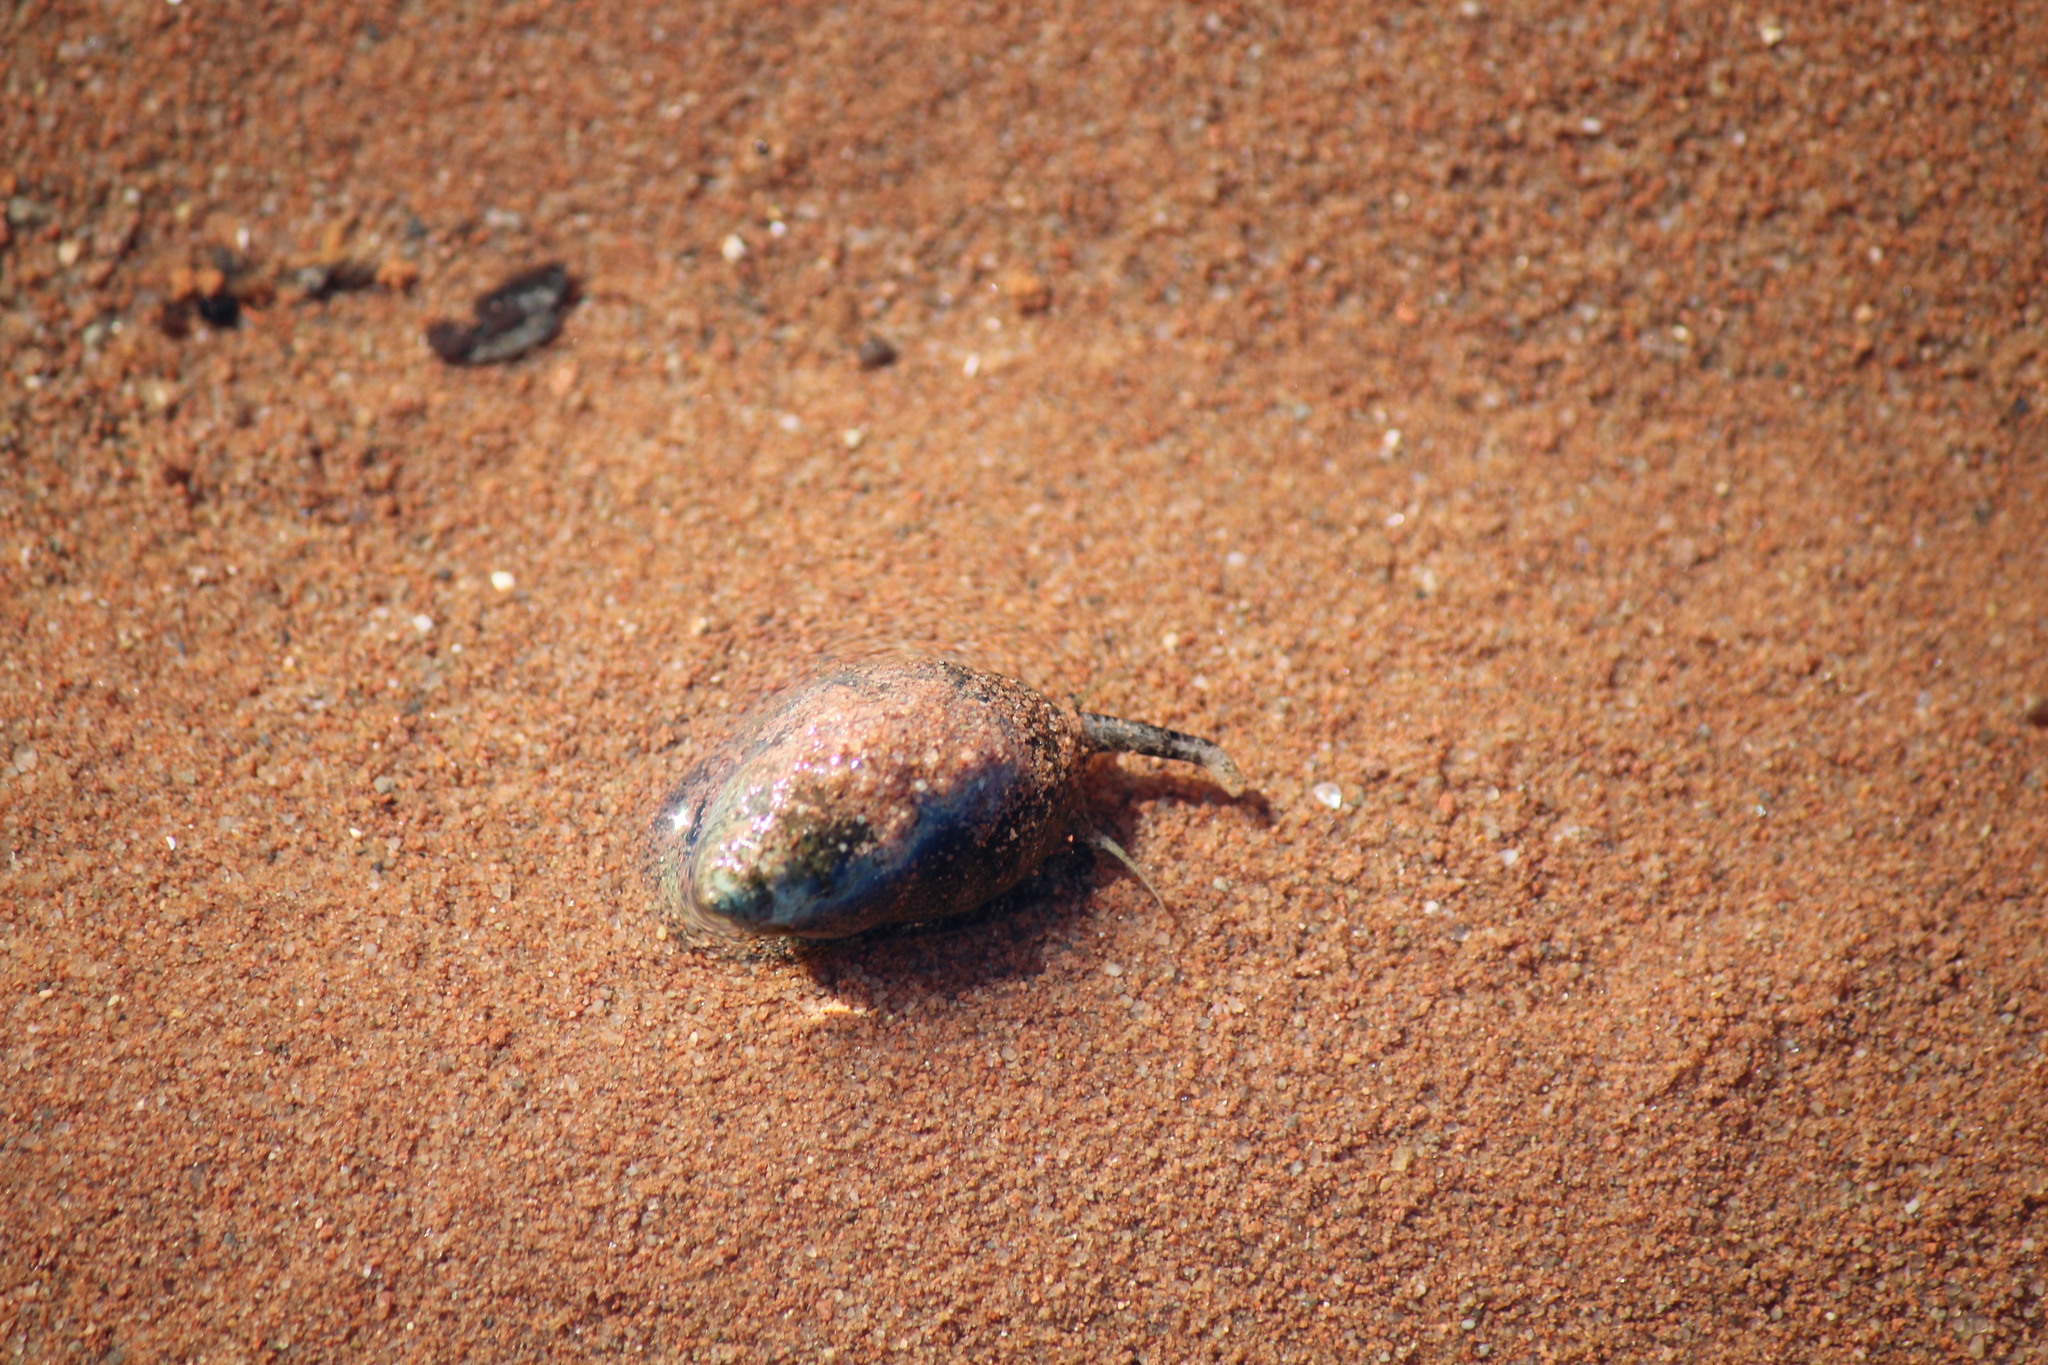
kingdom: Animalia
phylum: Mollusca
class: Gastropoda
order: Neogastropoda
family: Nassariidae
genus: Ilyanassa
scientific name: Ilyanassa obsoleta
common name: Eastern mudsnail
